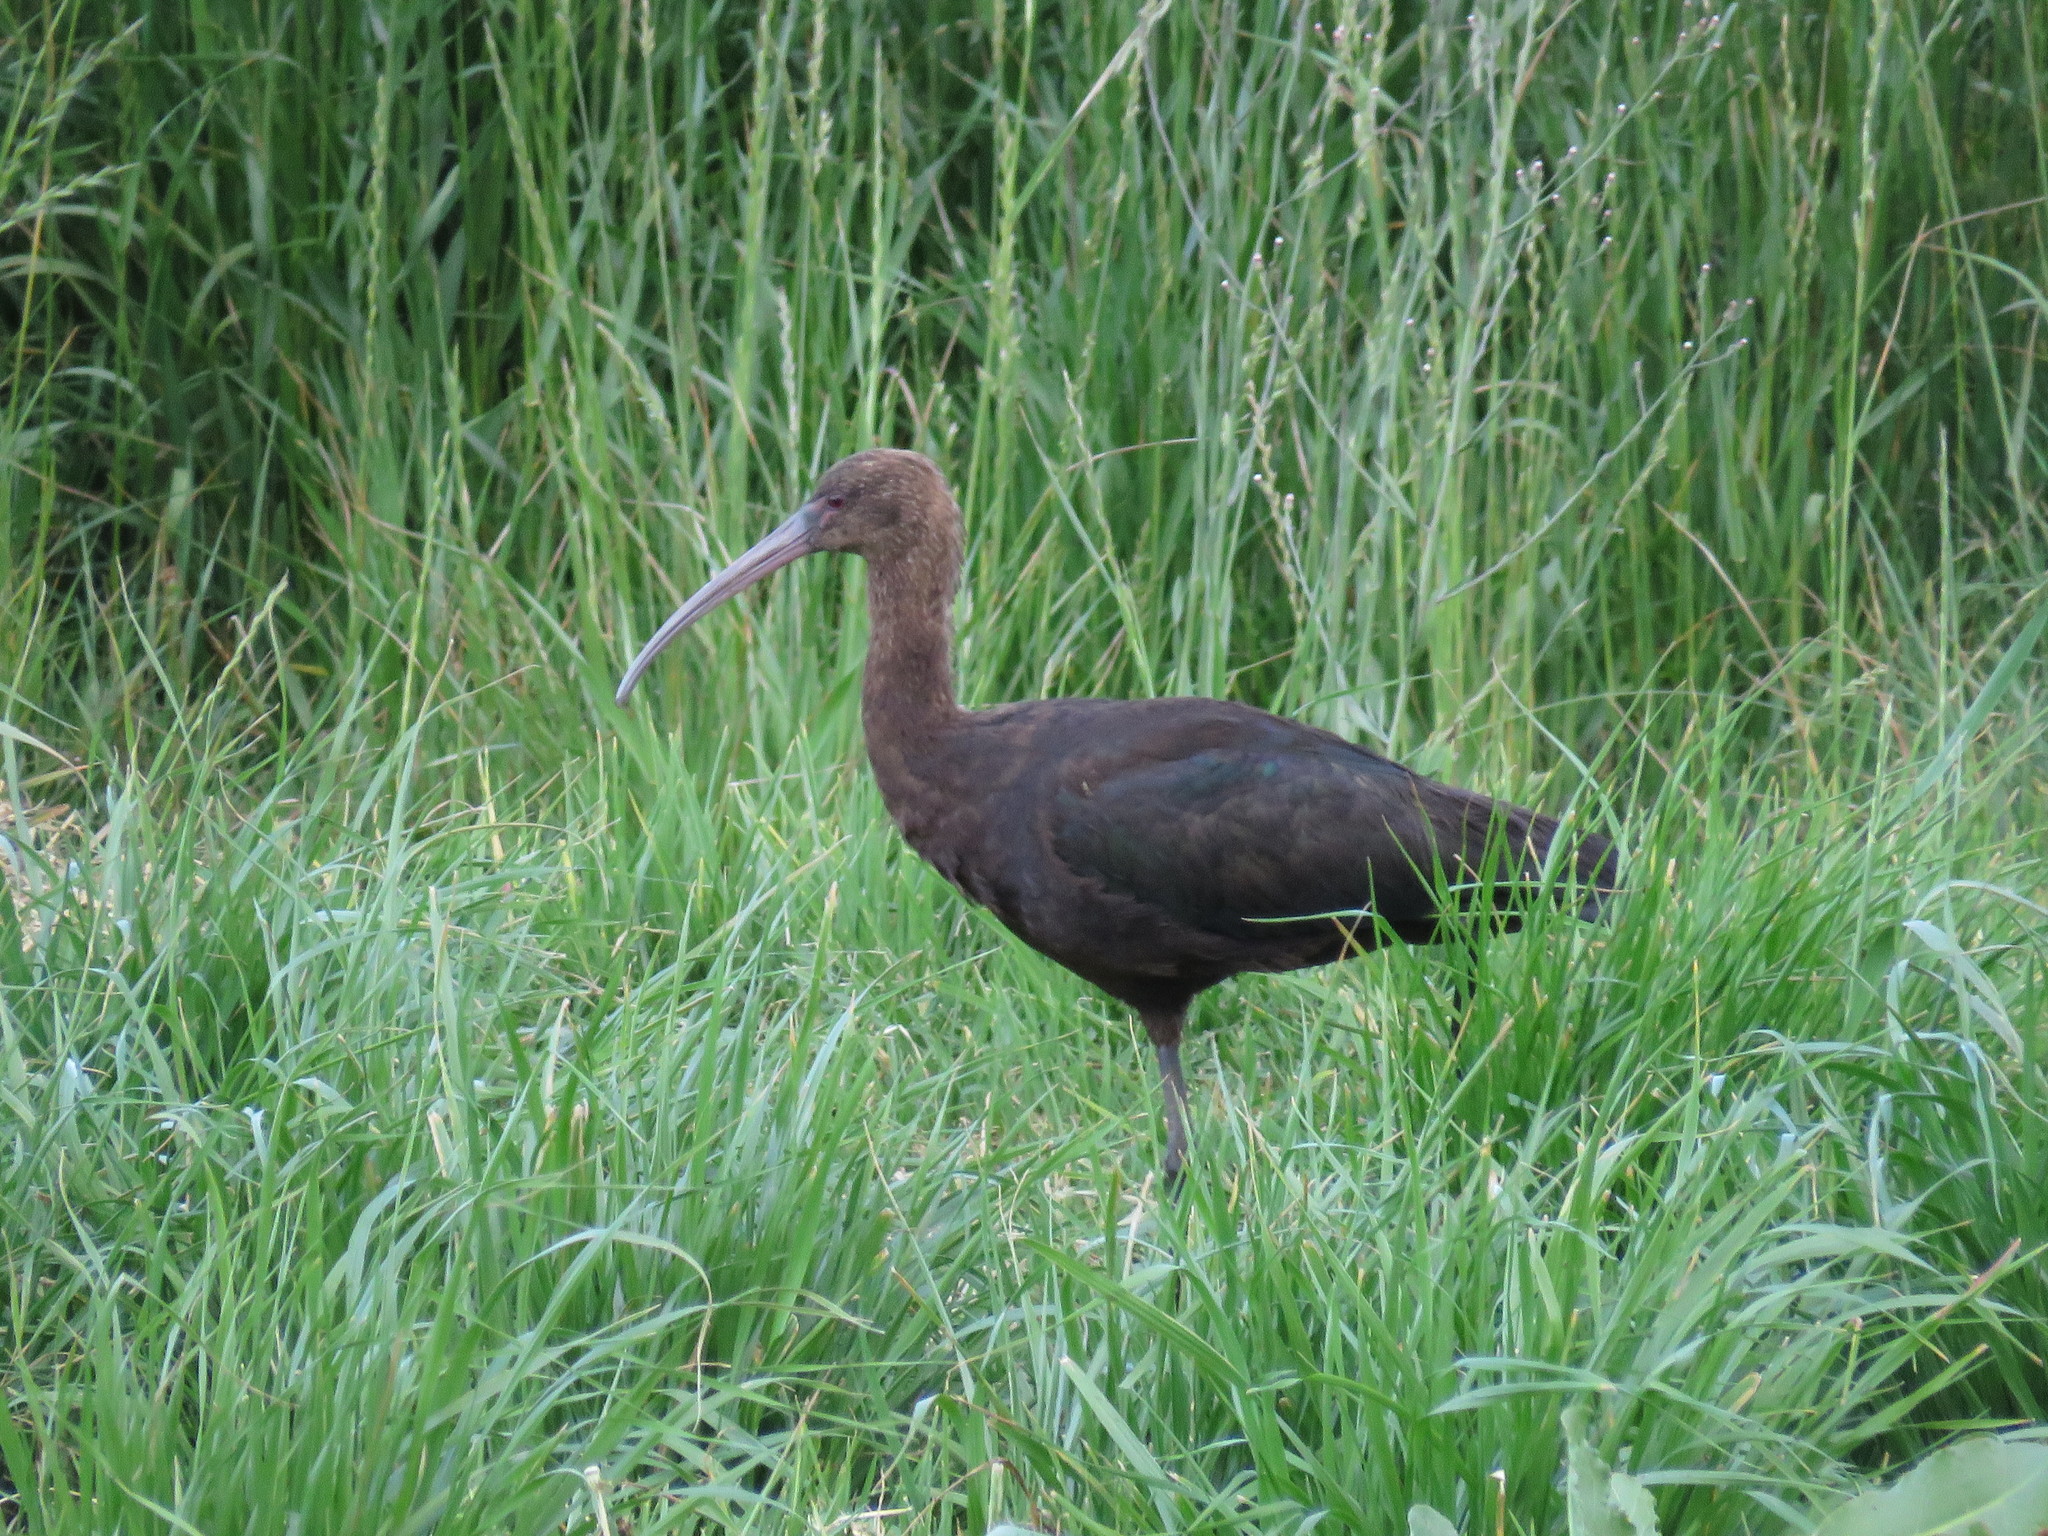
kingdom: Animalia
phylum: Chordata
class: Aves
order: Pelecaniformes
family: Threskiornithidae
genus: Plegadis
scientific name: Plegadis ridgwayi
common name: Puna ibis
